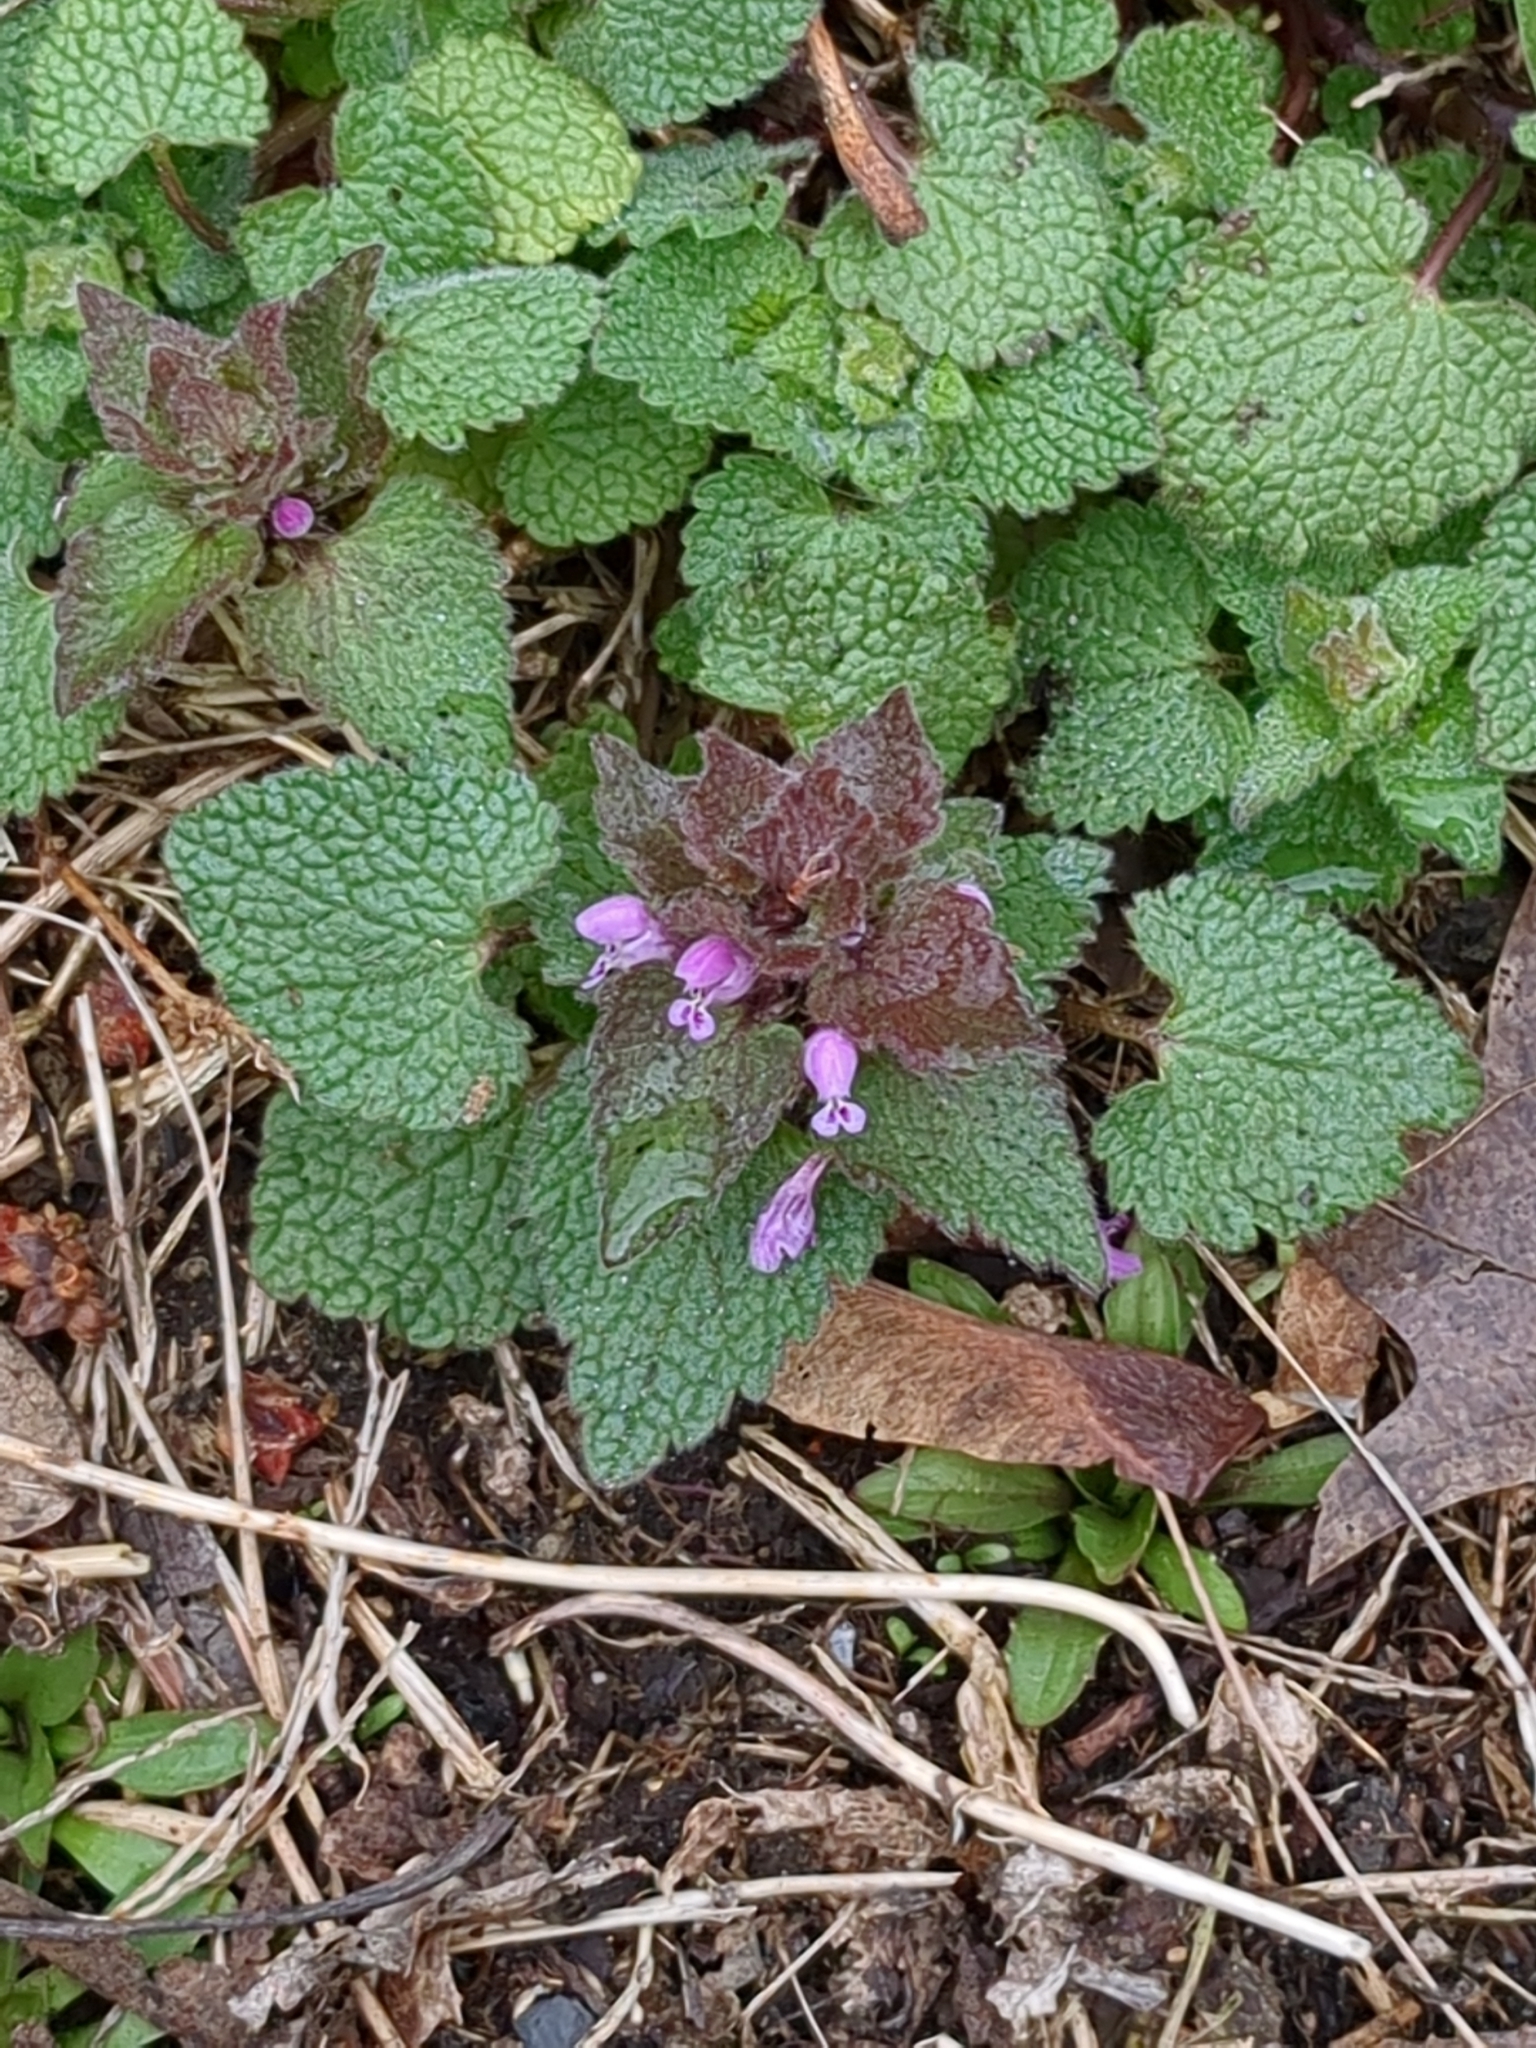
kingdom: Plantae
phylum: Tracheophyta
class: Magnoliopsida
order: Lamiales
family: Lamiaceae
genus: Lamium
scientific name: Lamium purpureum
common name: Red dead-nettle
